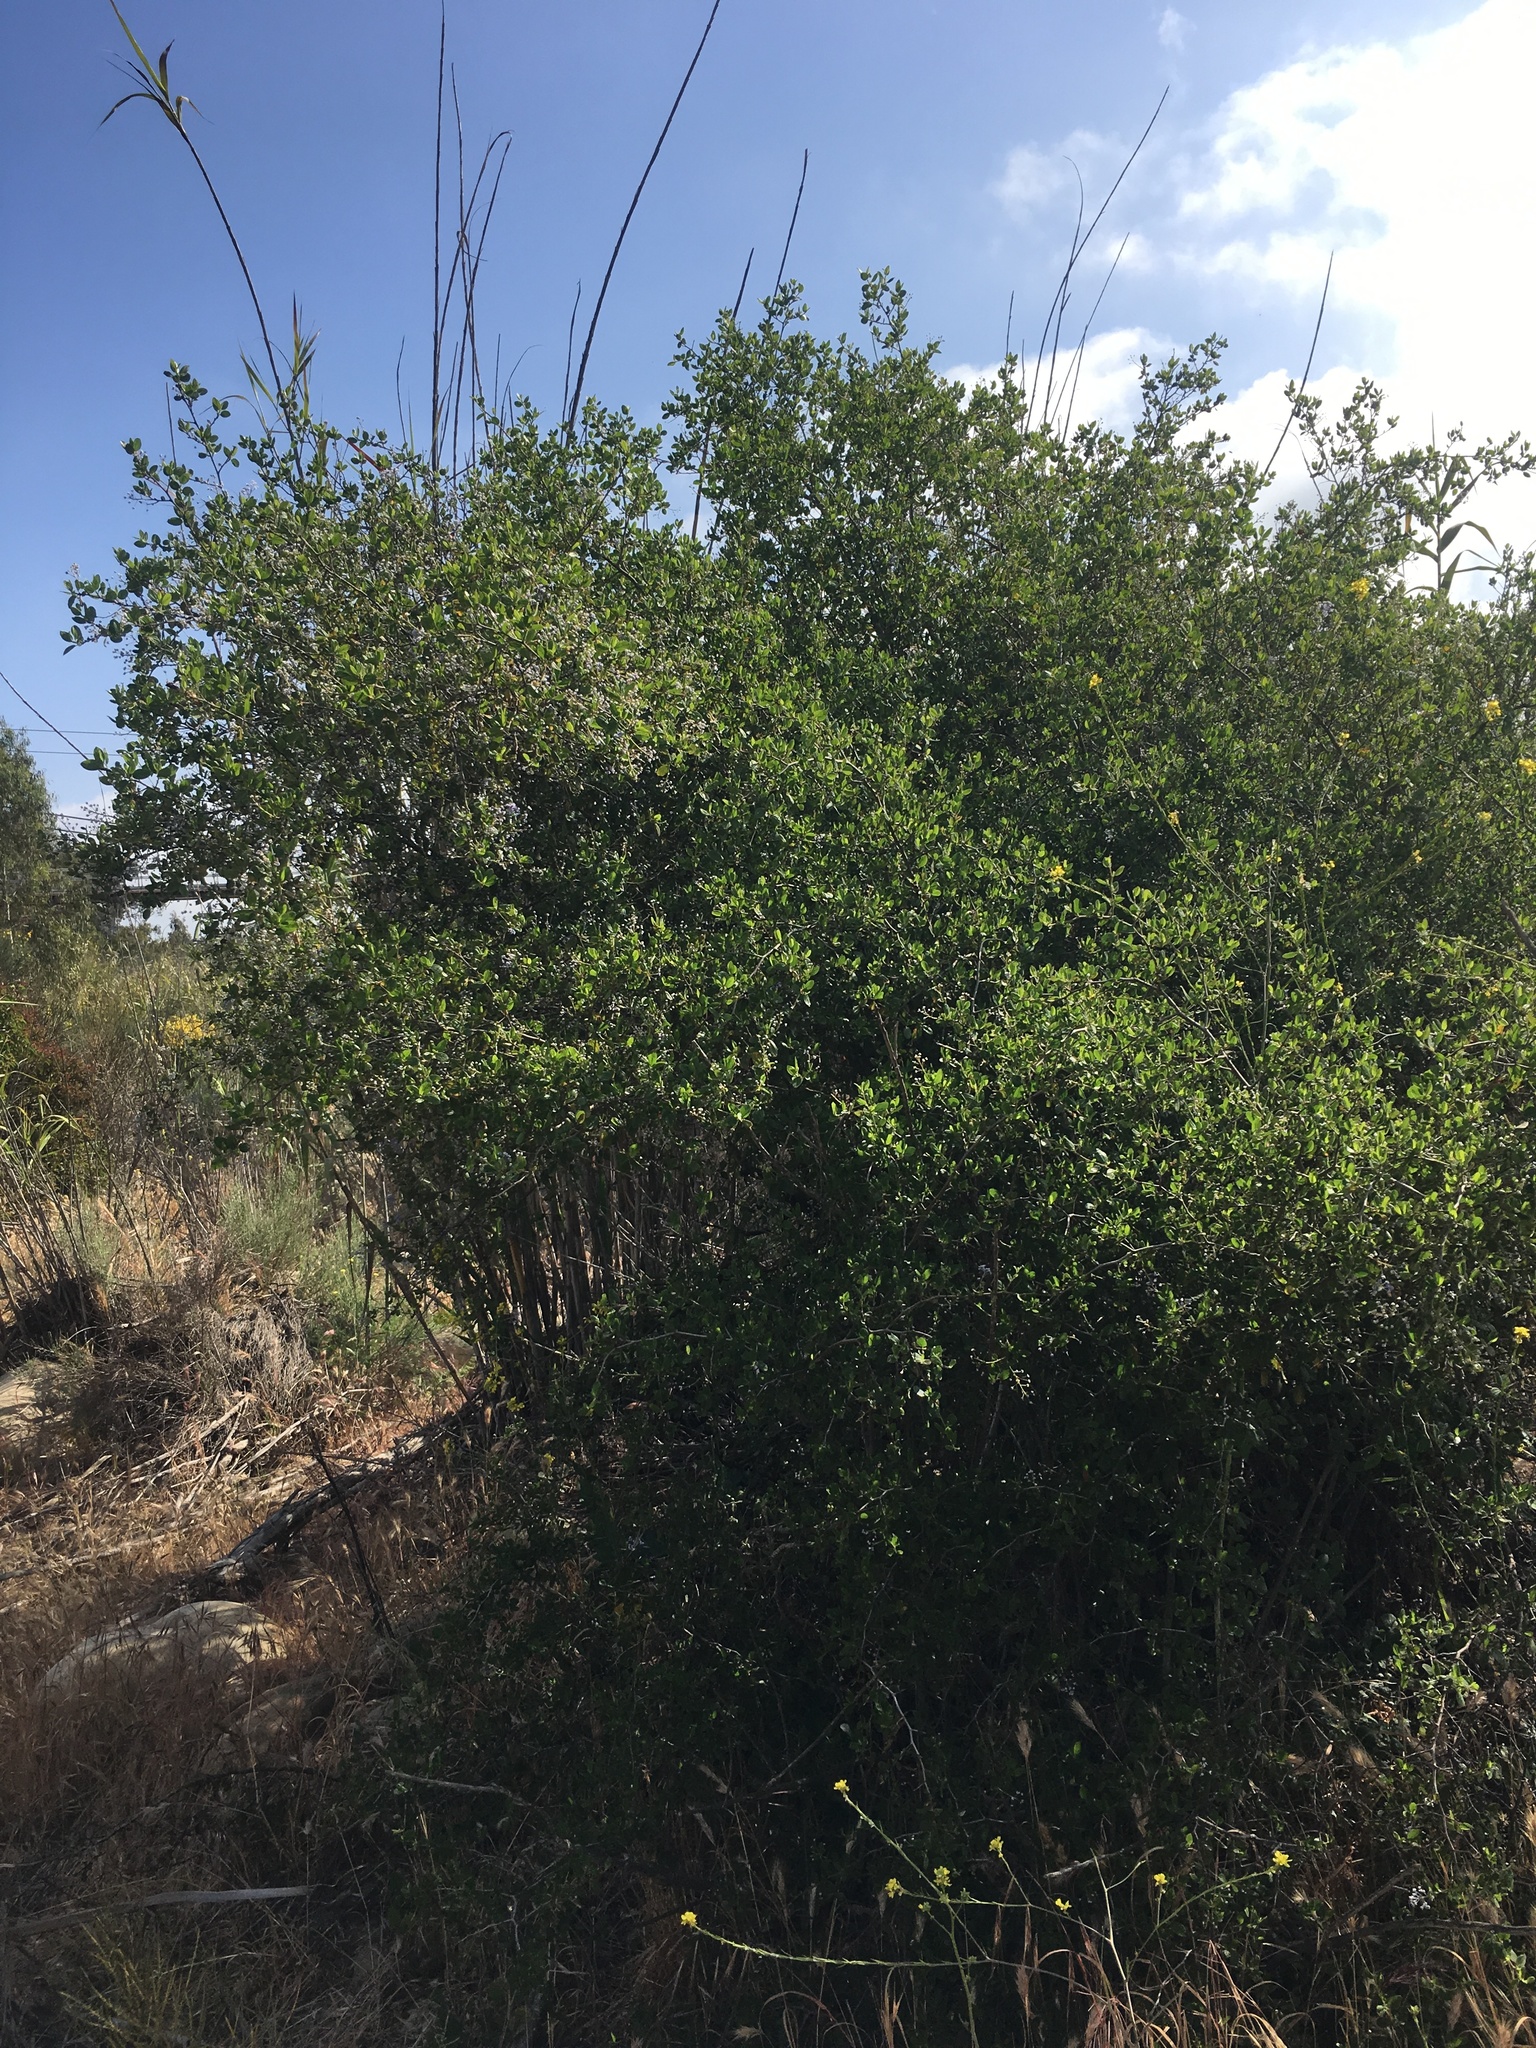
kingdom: Plantae
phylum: Tracheophyta
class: Magnoliopsida
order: Rosales
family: Rhamnaceae
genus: Ceanothus
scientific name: Ceanothus oliganthus
